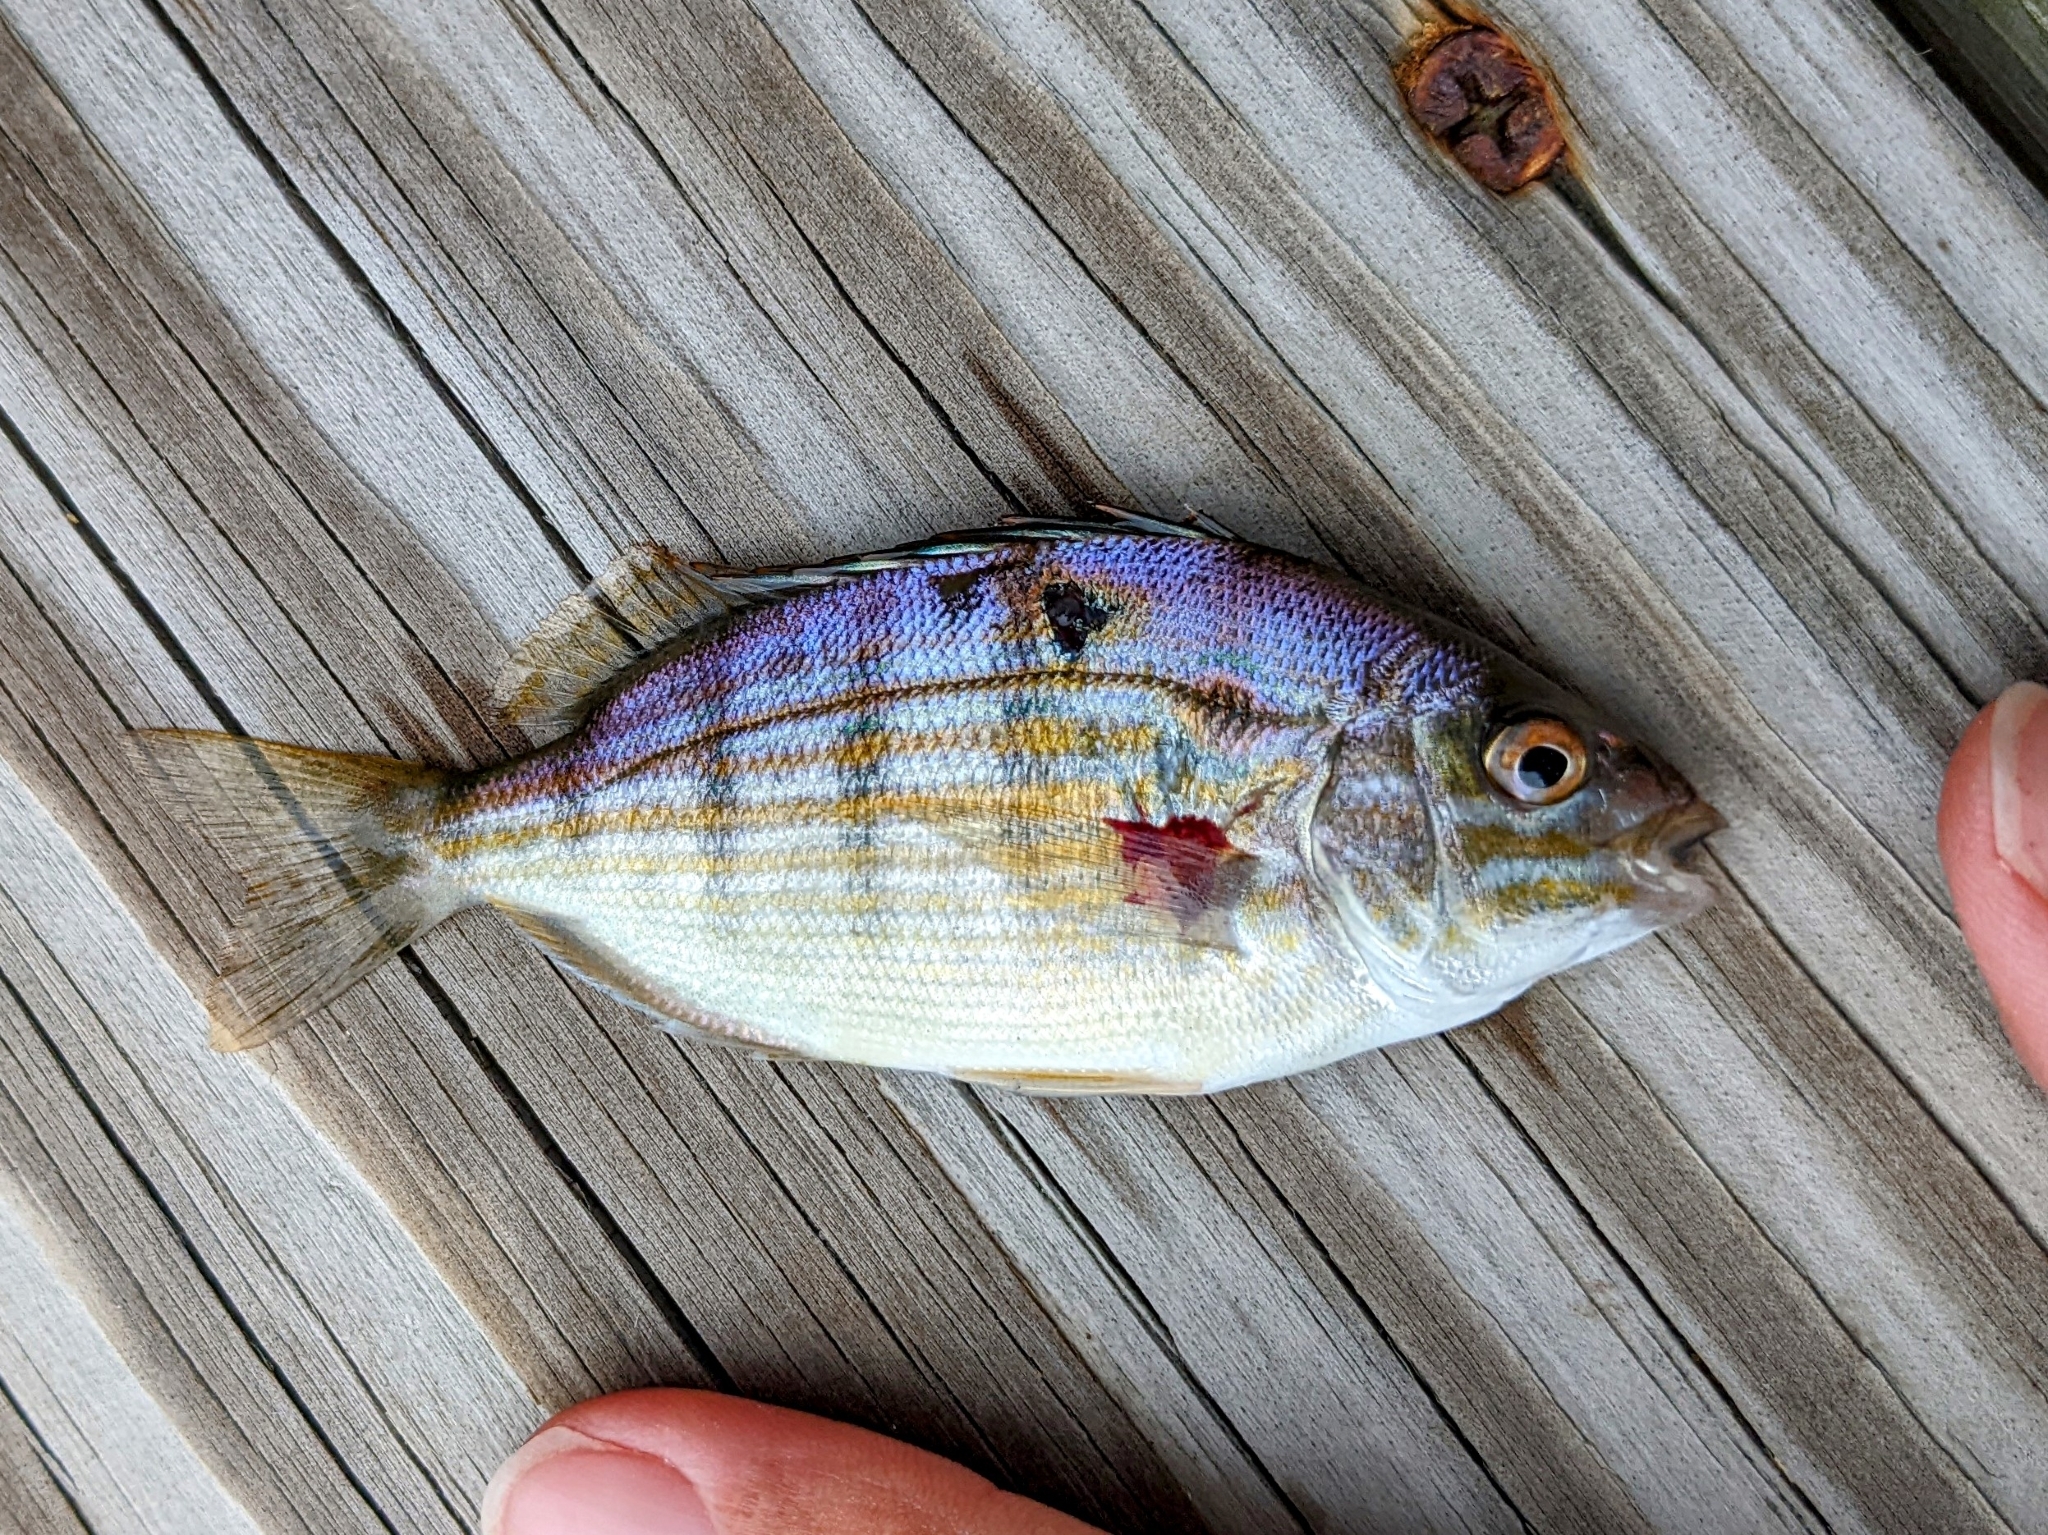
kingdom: Animalia
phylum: Chordata
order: Perciformes
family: Sparidae
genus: Lagodon
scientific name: Lagodon rhomboides
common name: Pinfish
